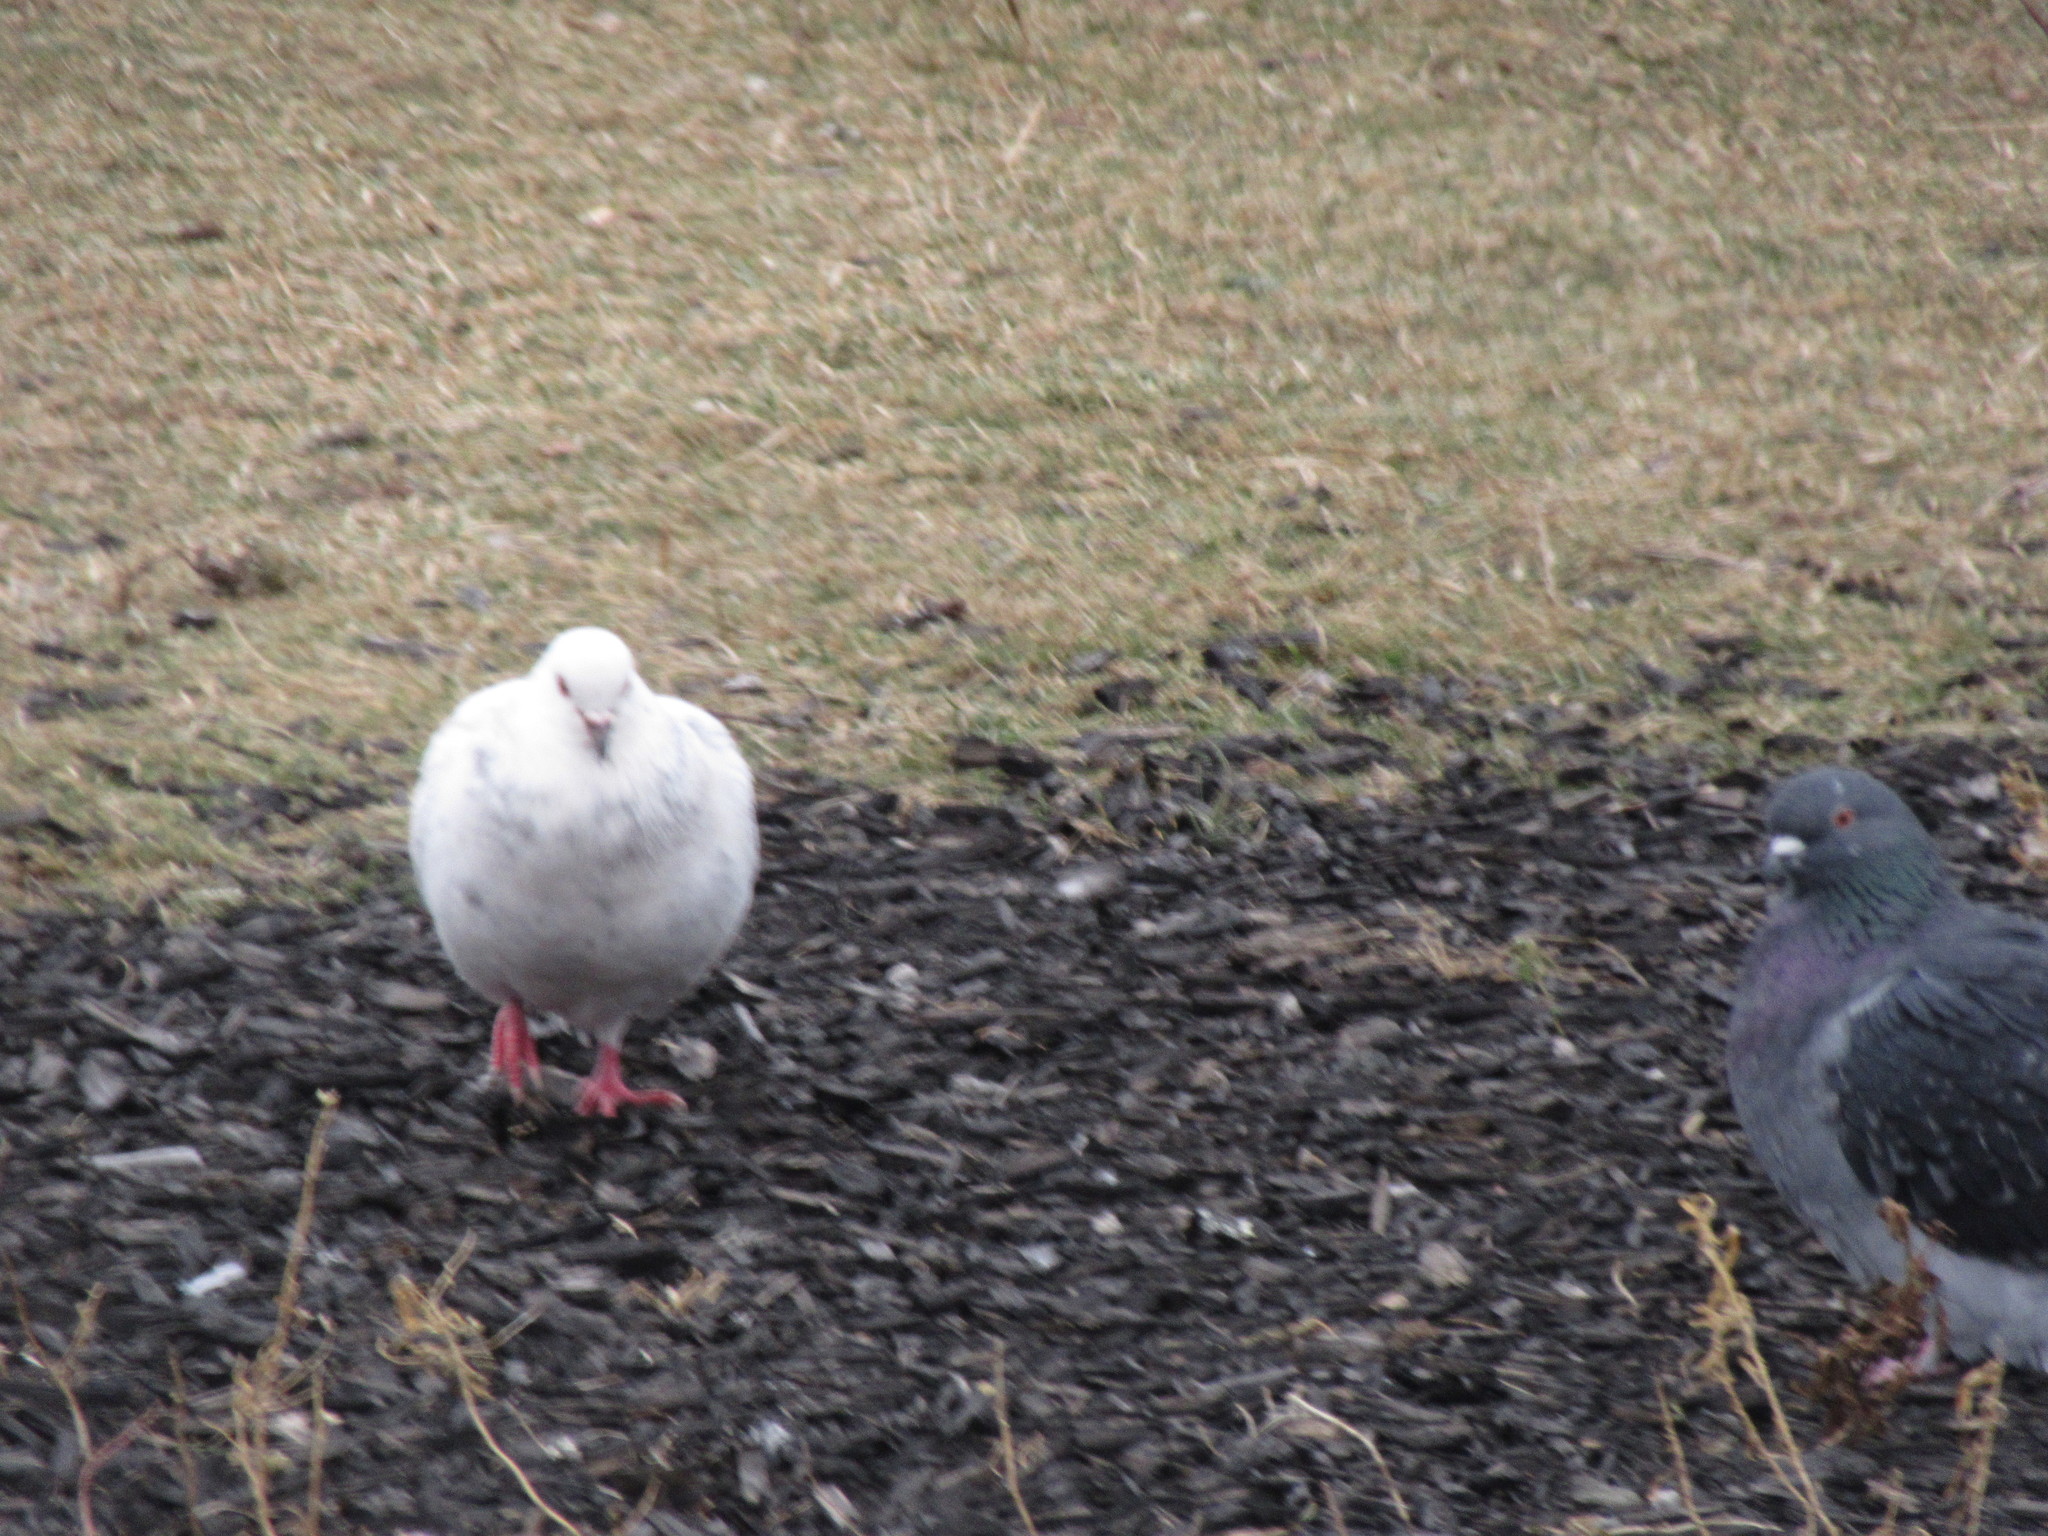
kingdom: Animalia
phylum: Chordata
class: Aves
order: Columbiformes
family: Columbidae
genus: Columba
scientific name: Columba livia
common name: Rock pigeon
